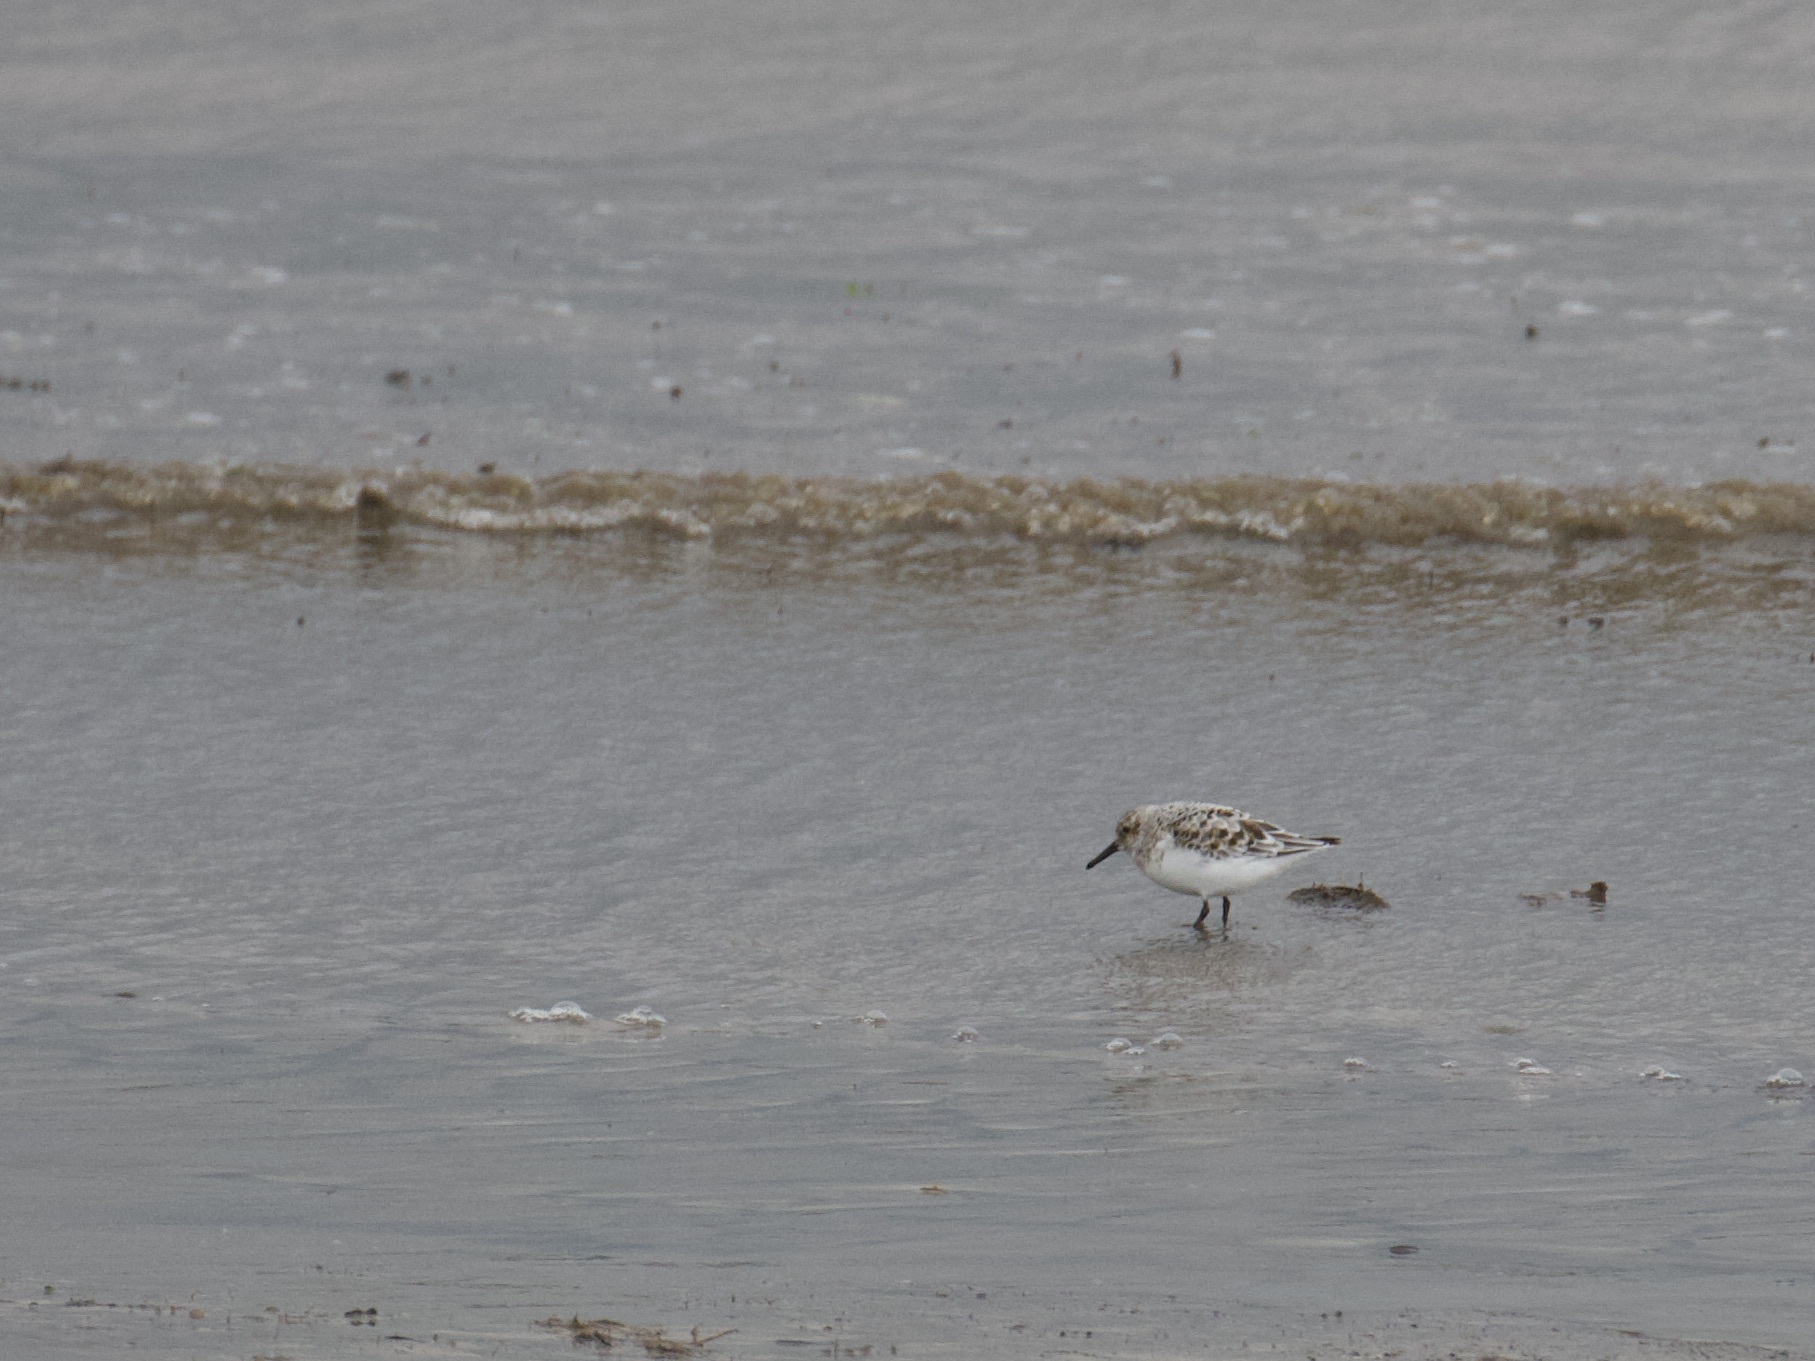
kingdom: Animalia
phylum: Chordata
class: Aves
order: Charadriiformes
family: Scolopacidae
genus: Calidris
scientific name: Calidris alba
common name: Sanderling
